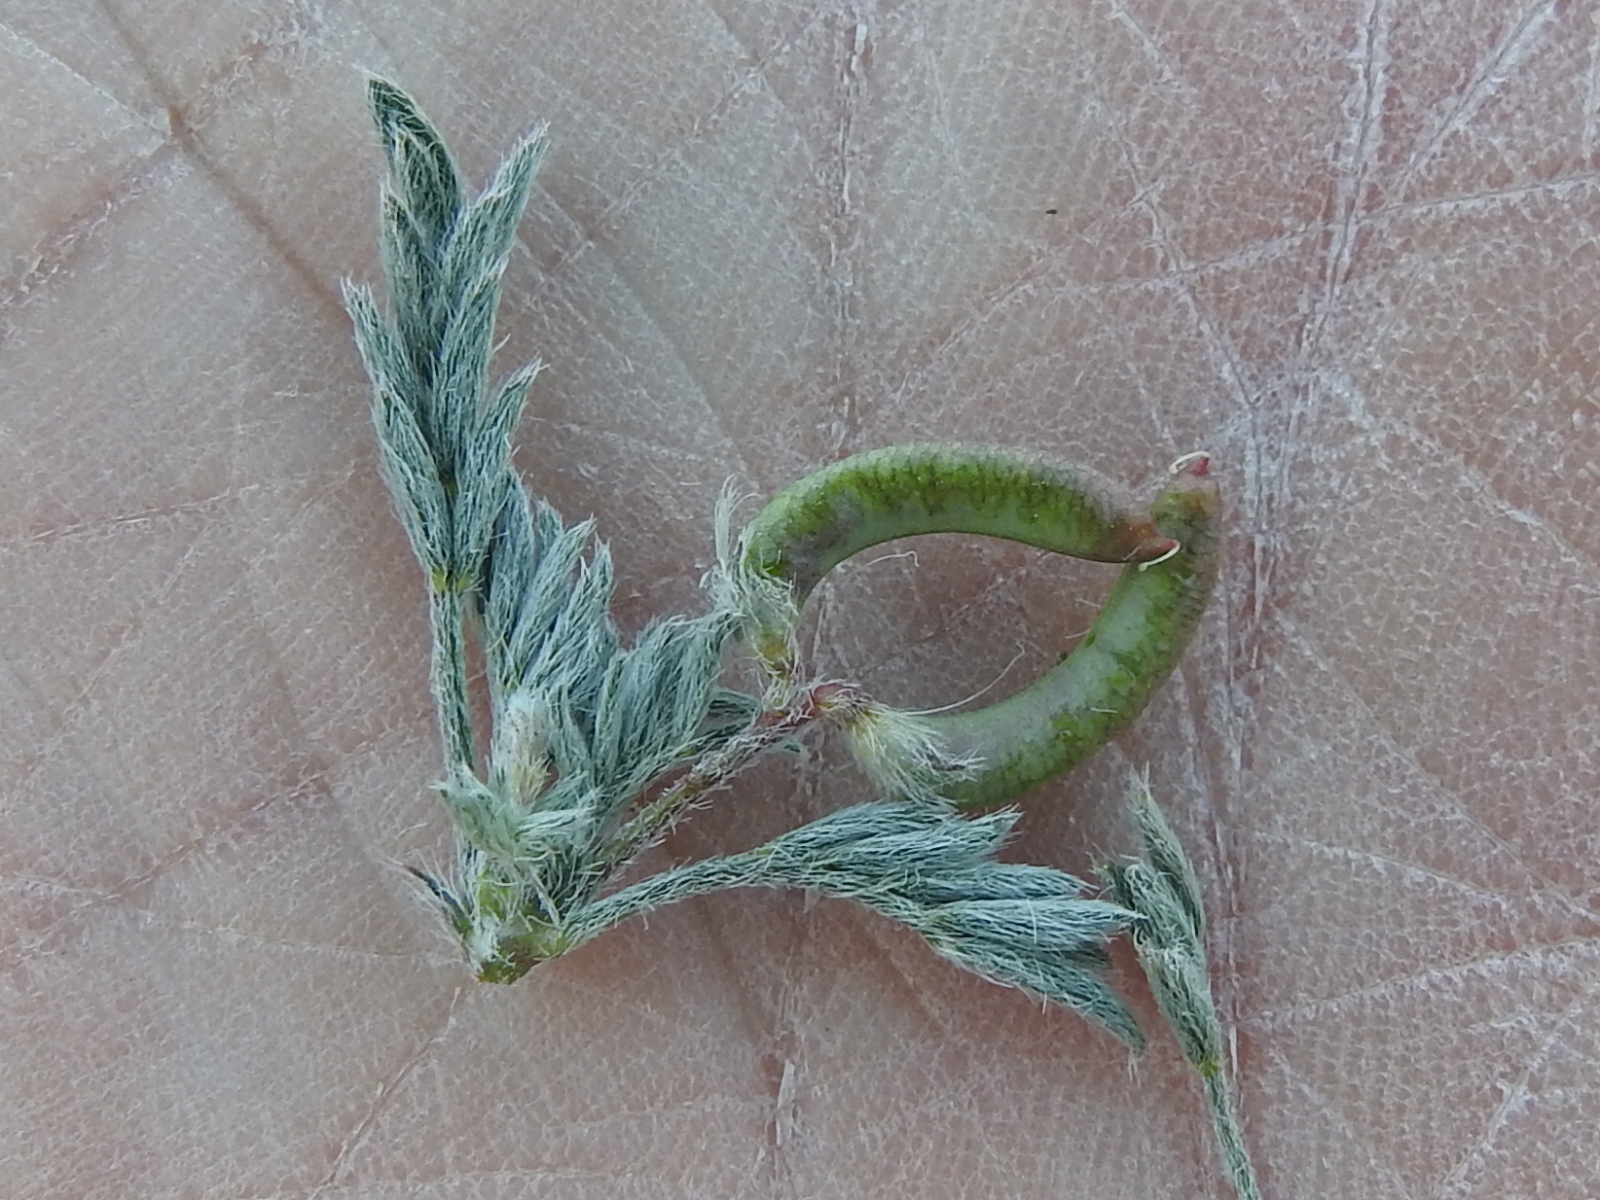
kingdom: Plantae
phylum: Tracheophyta
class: Magnoliopsida
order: Fabales
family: Fabaceae
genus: Astragalus
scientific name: Astragalus nuttallianus
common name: Smallflowered milkvetch
